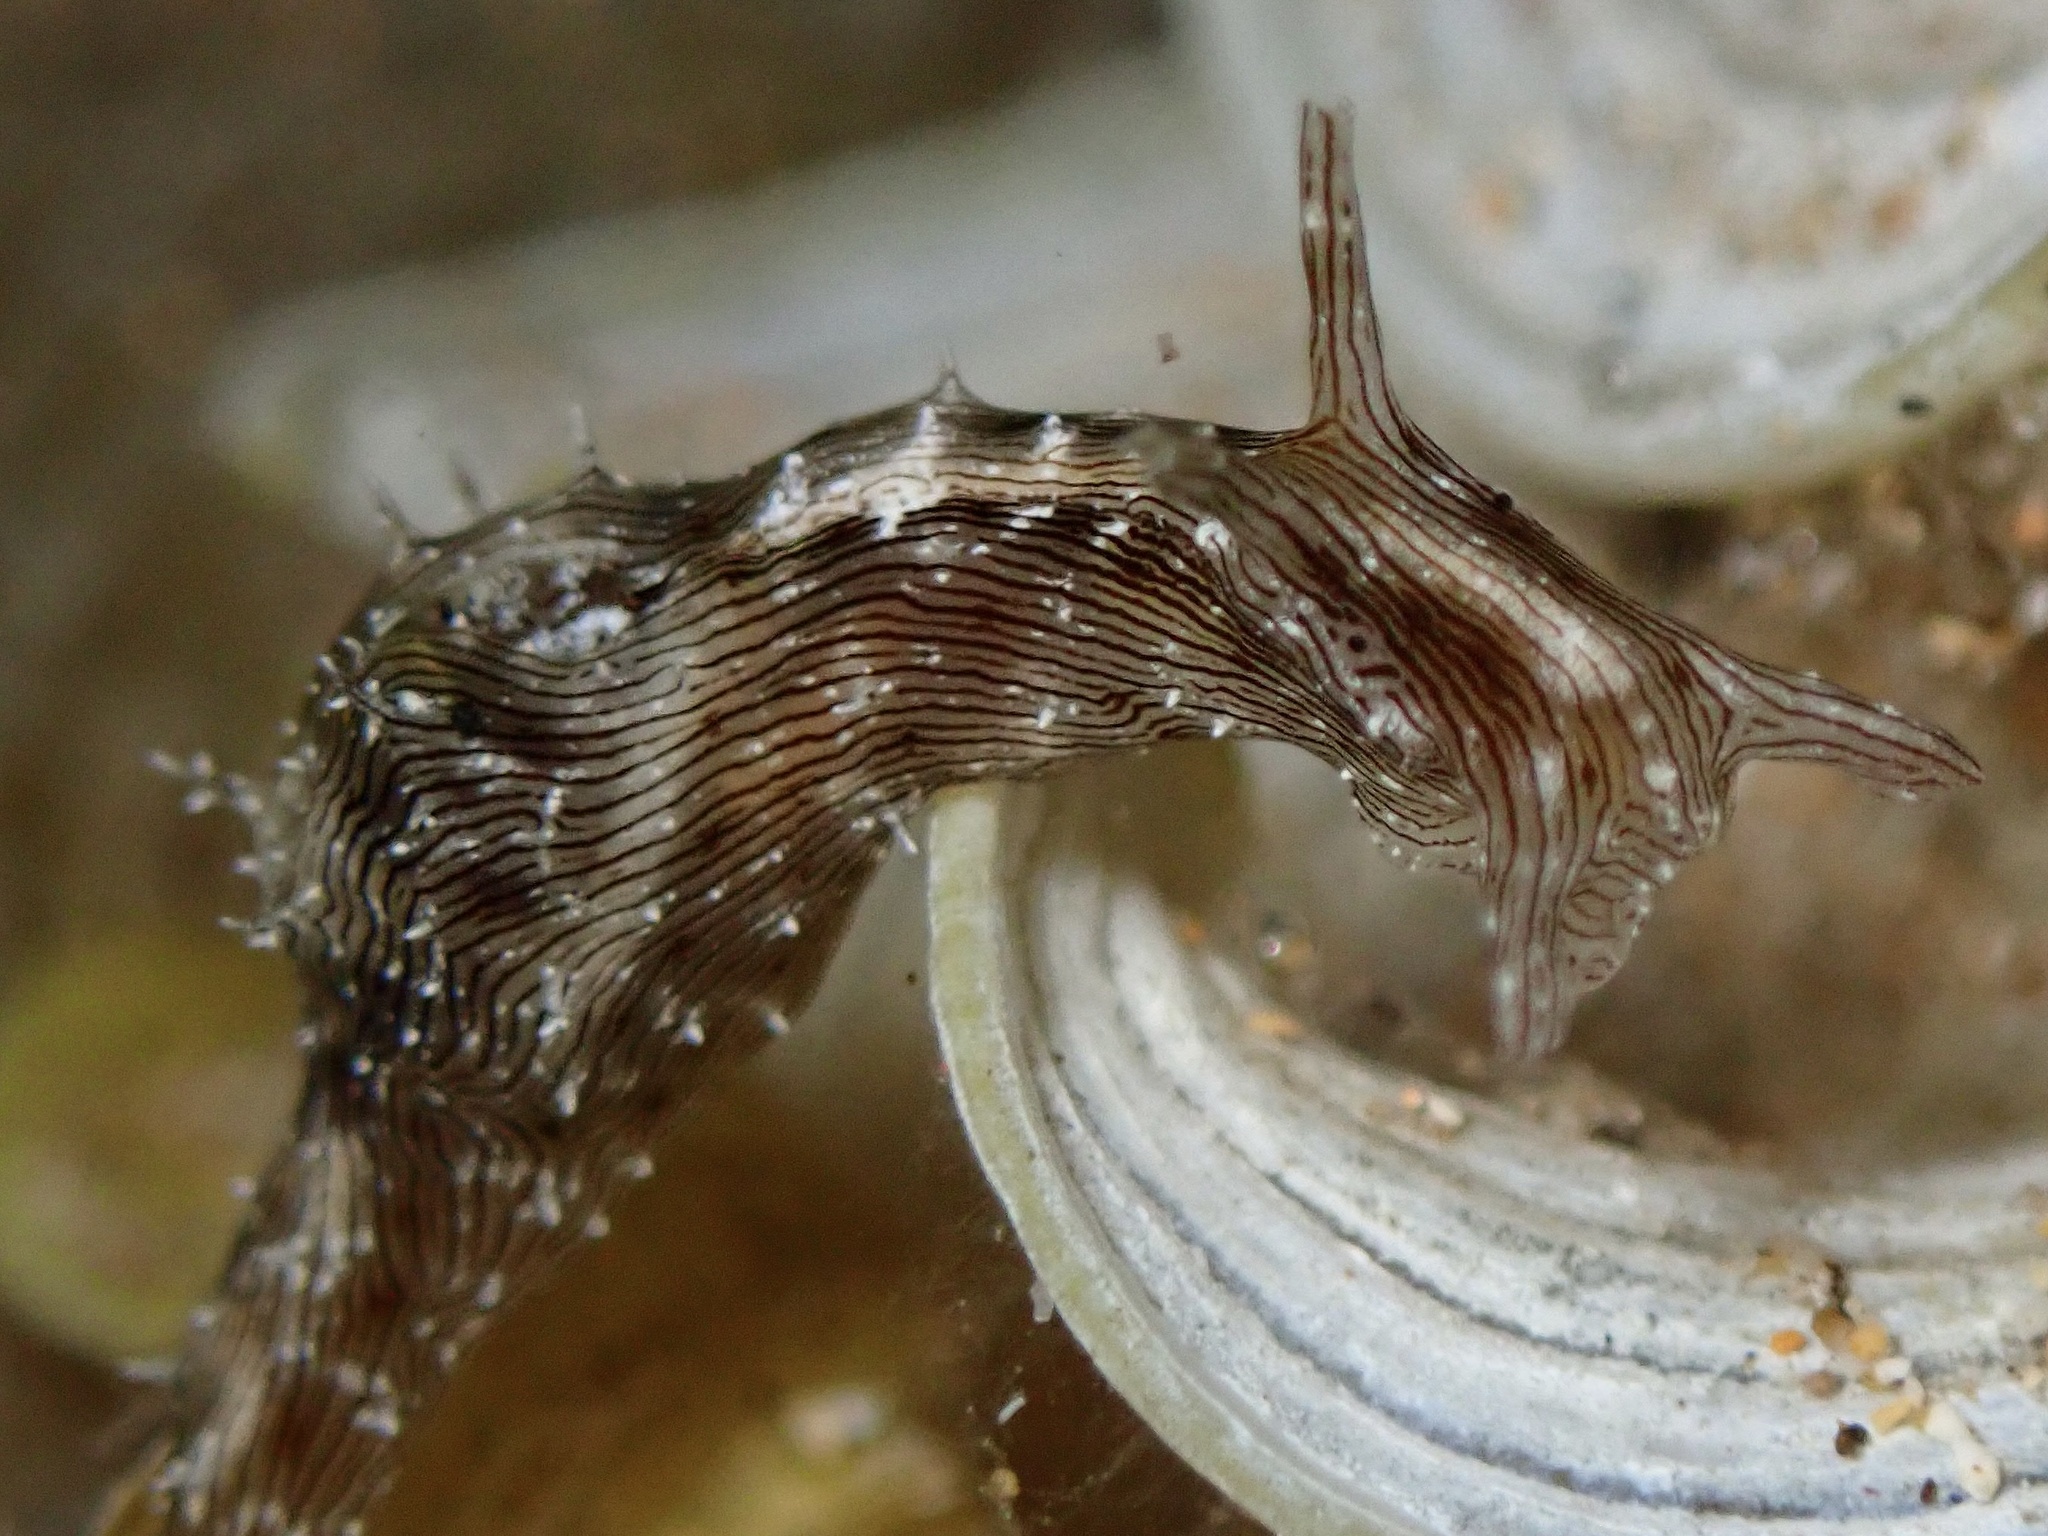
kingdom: Animalia
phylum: Mollusca
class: Gastropoda
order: Aplysiida
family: Aplysiidae
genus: Stylocheilus
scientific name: Stylocheilus striatus
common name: Striated seahare
